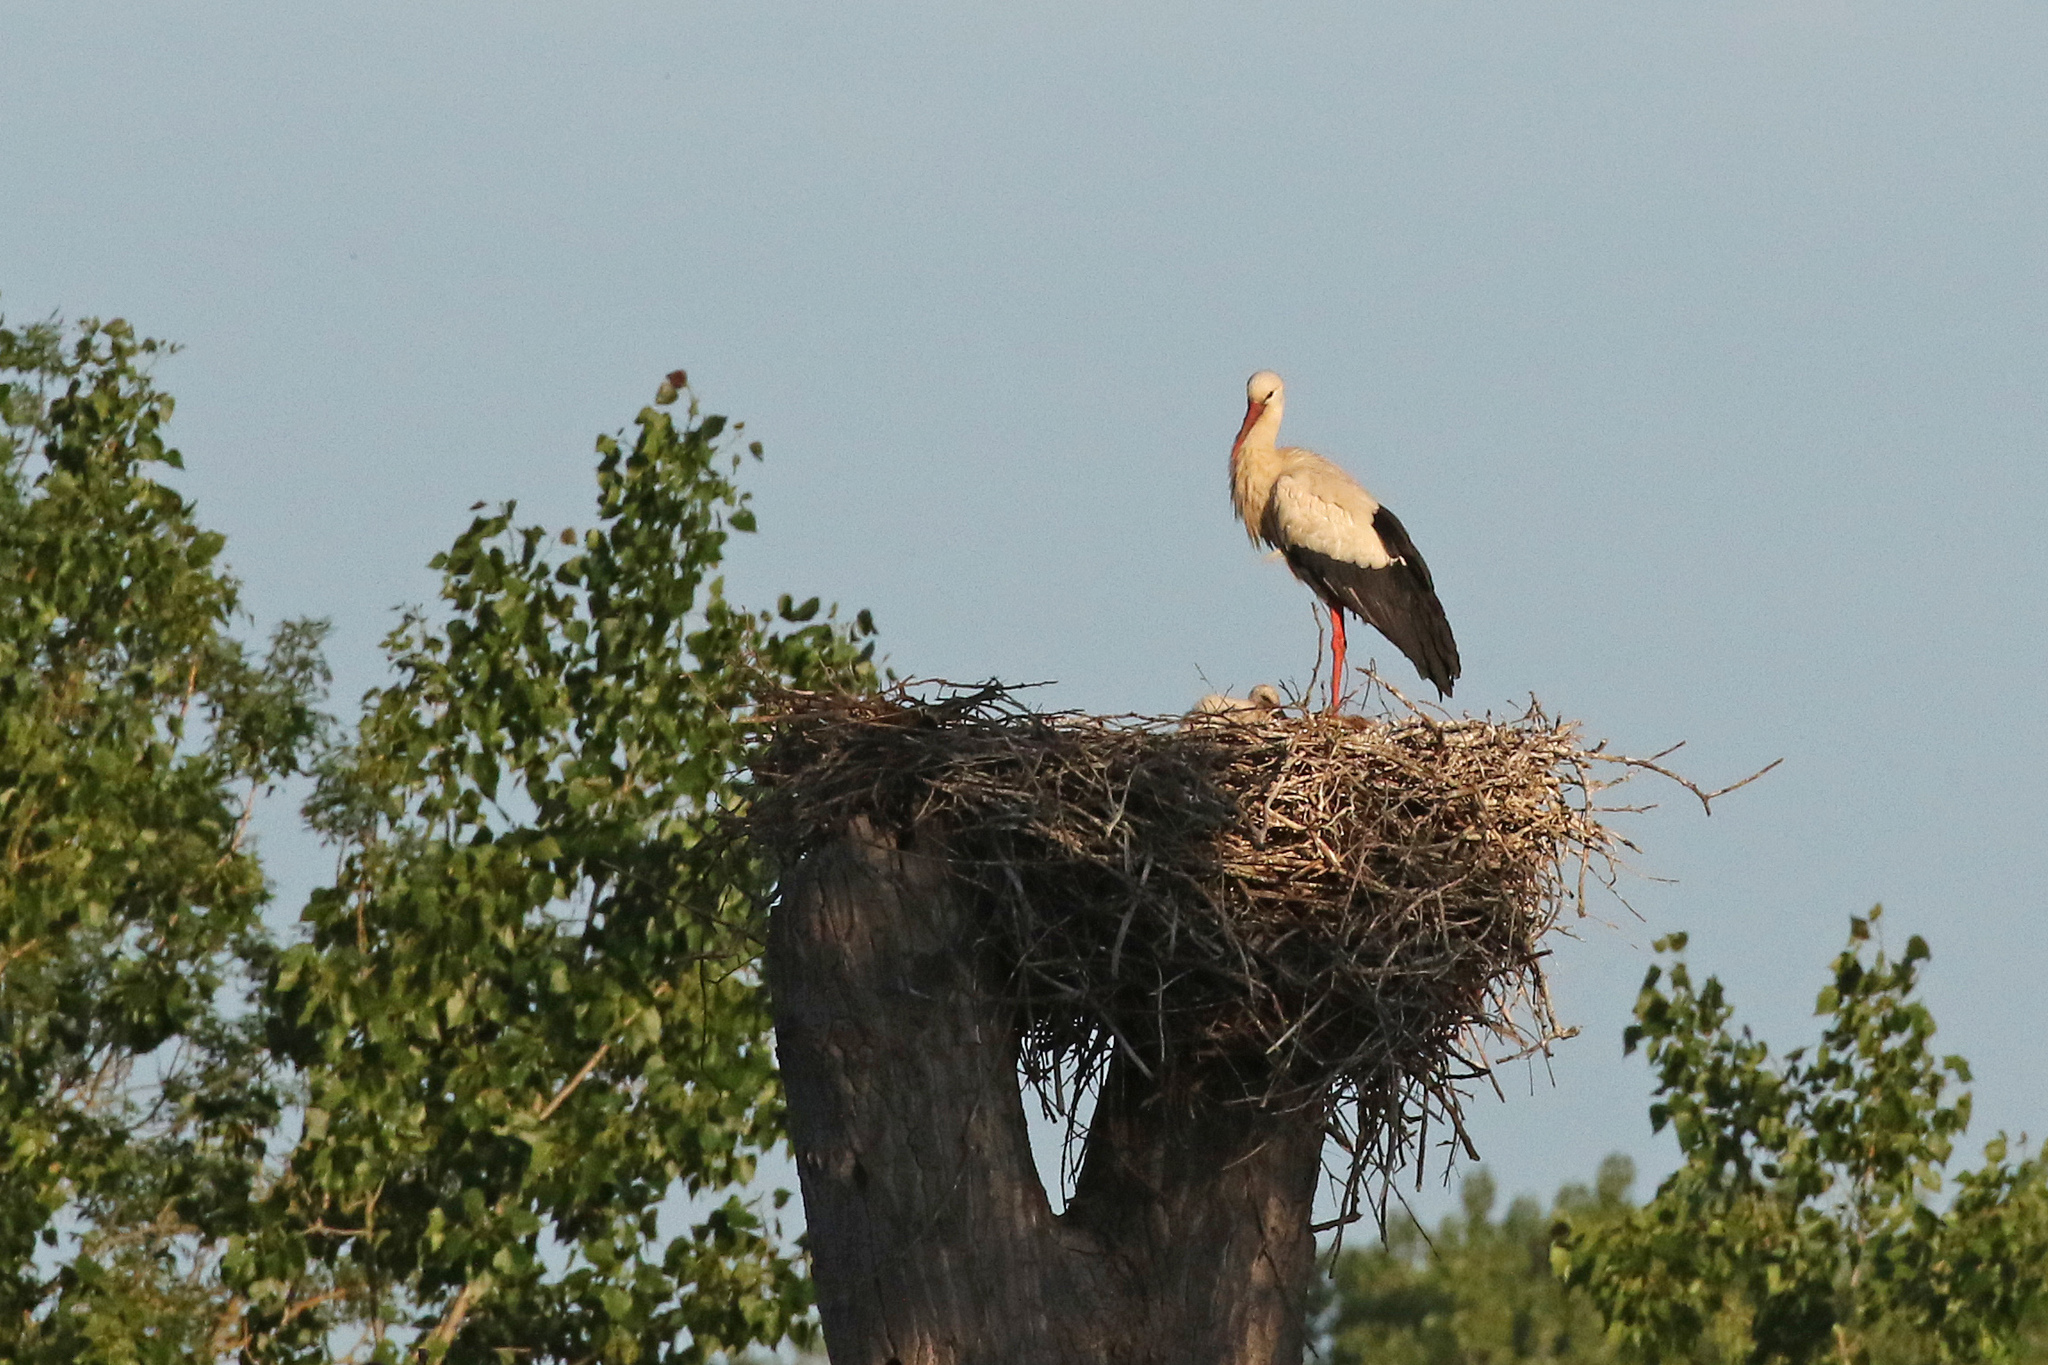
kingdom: Animalia
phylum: Chordata
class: Aves
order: Ciconiiformes
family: Ciconiidae
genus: Ciconia
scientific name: Ciconia ciconia
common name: White stork
